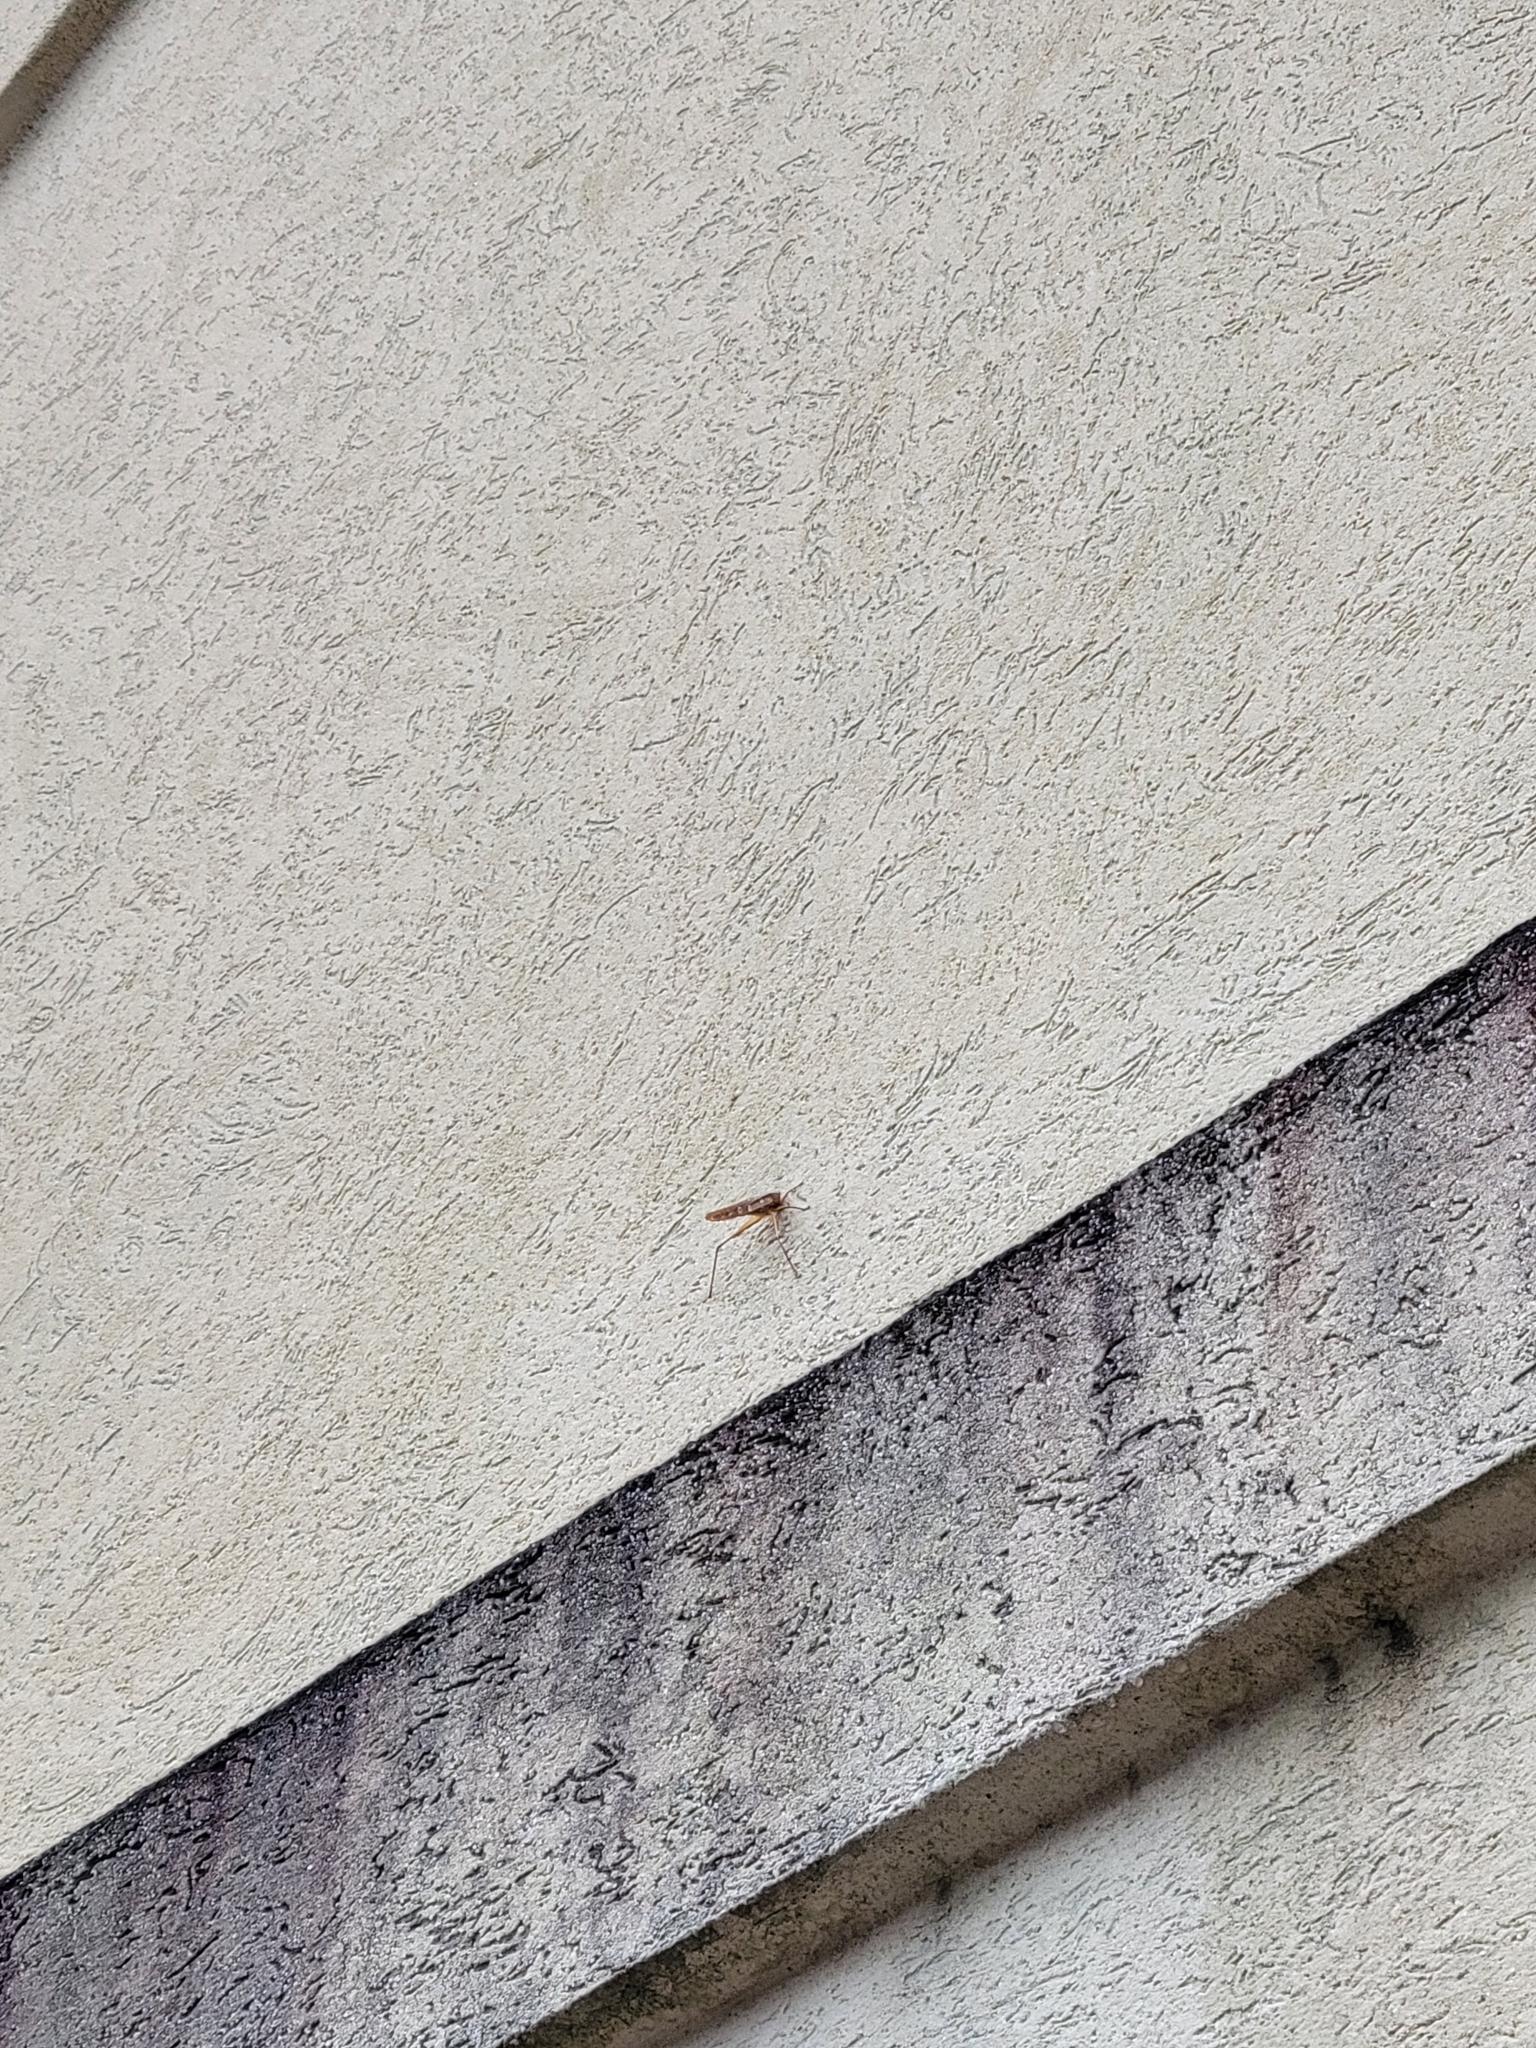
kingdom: Animalia
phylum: Arthropoda
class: Insecta
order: Orthoptera
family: Tettigoniidae
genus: Neoconocephalus
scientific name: Neoconocephalus triops
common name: Broad-tipped conehead
